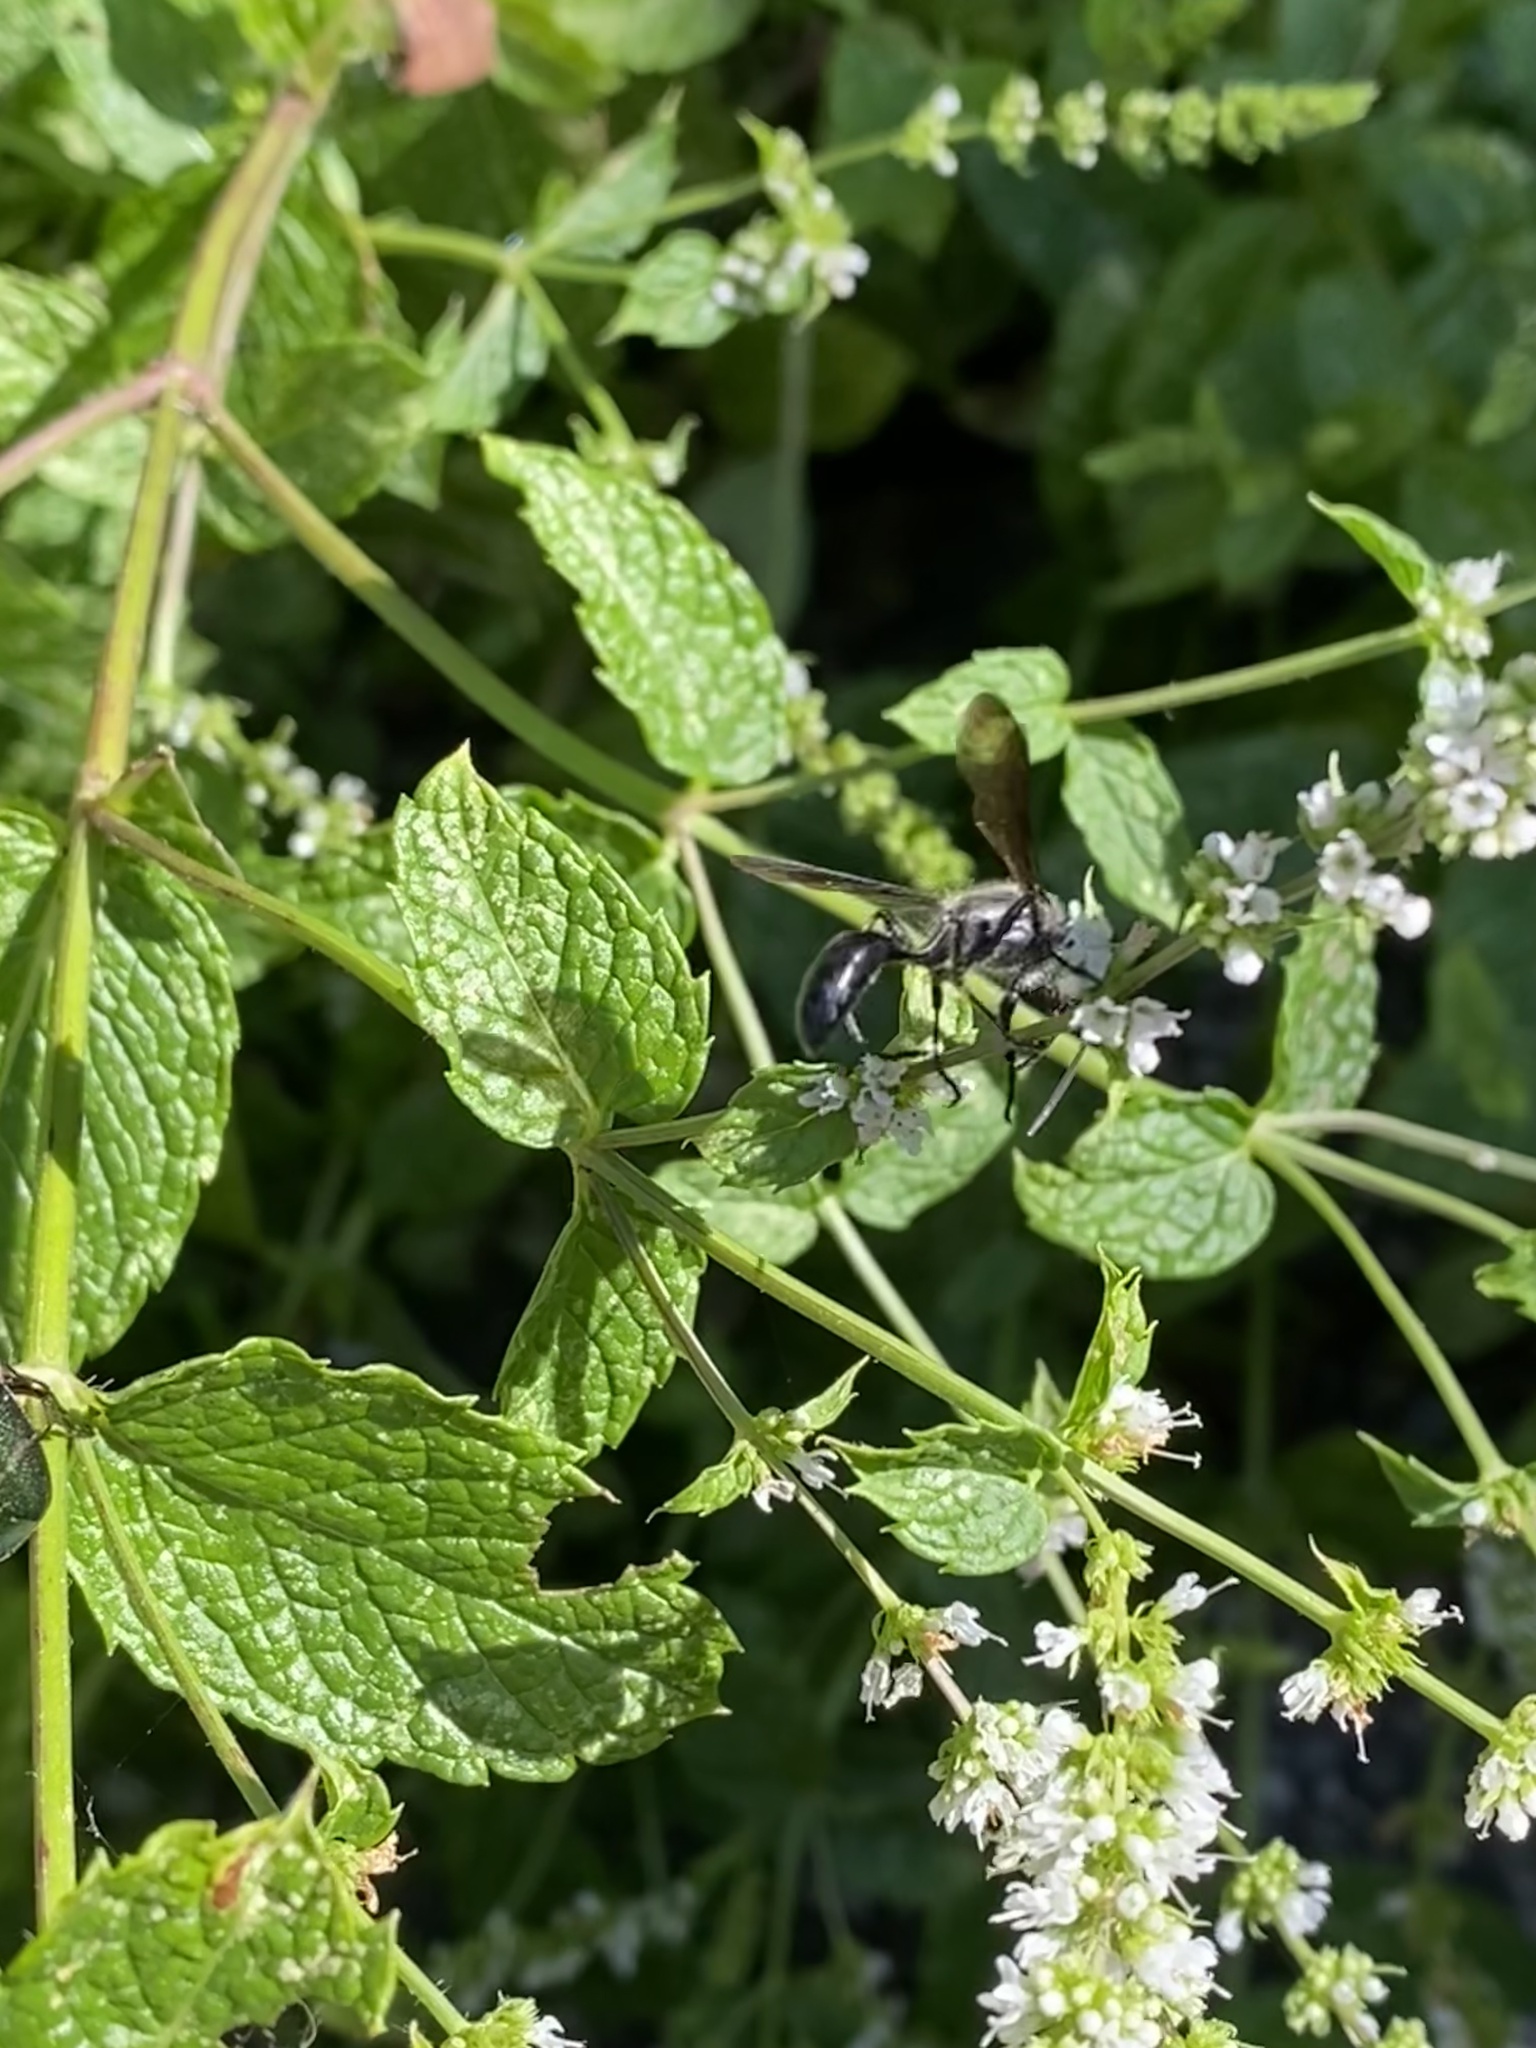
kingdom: Animalia
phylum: Arthropoda
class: Insecta
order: Hymenoptera
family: Sphecidae
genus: Isodontia
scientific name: Isodontia mexicana
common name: Mud dauber
